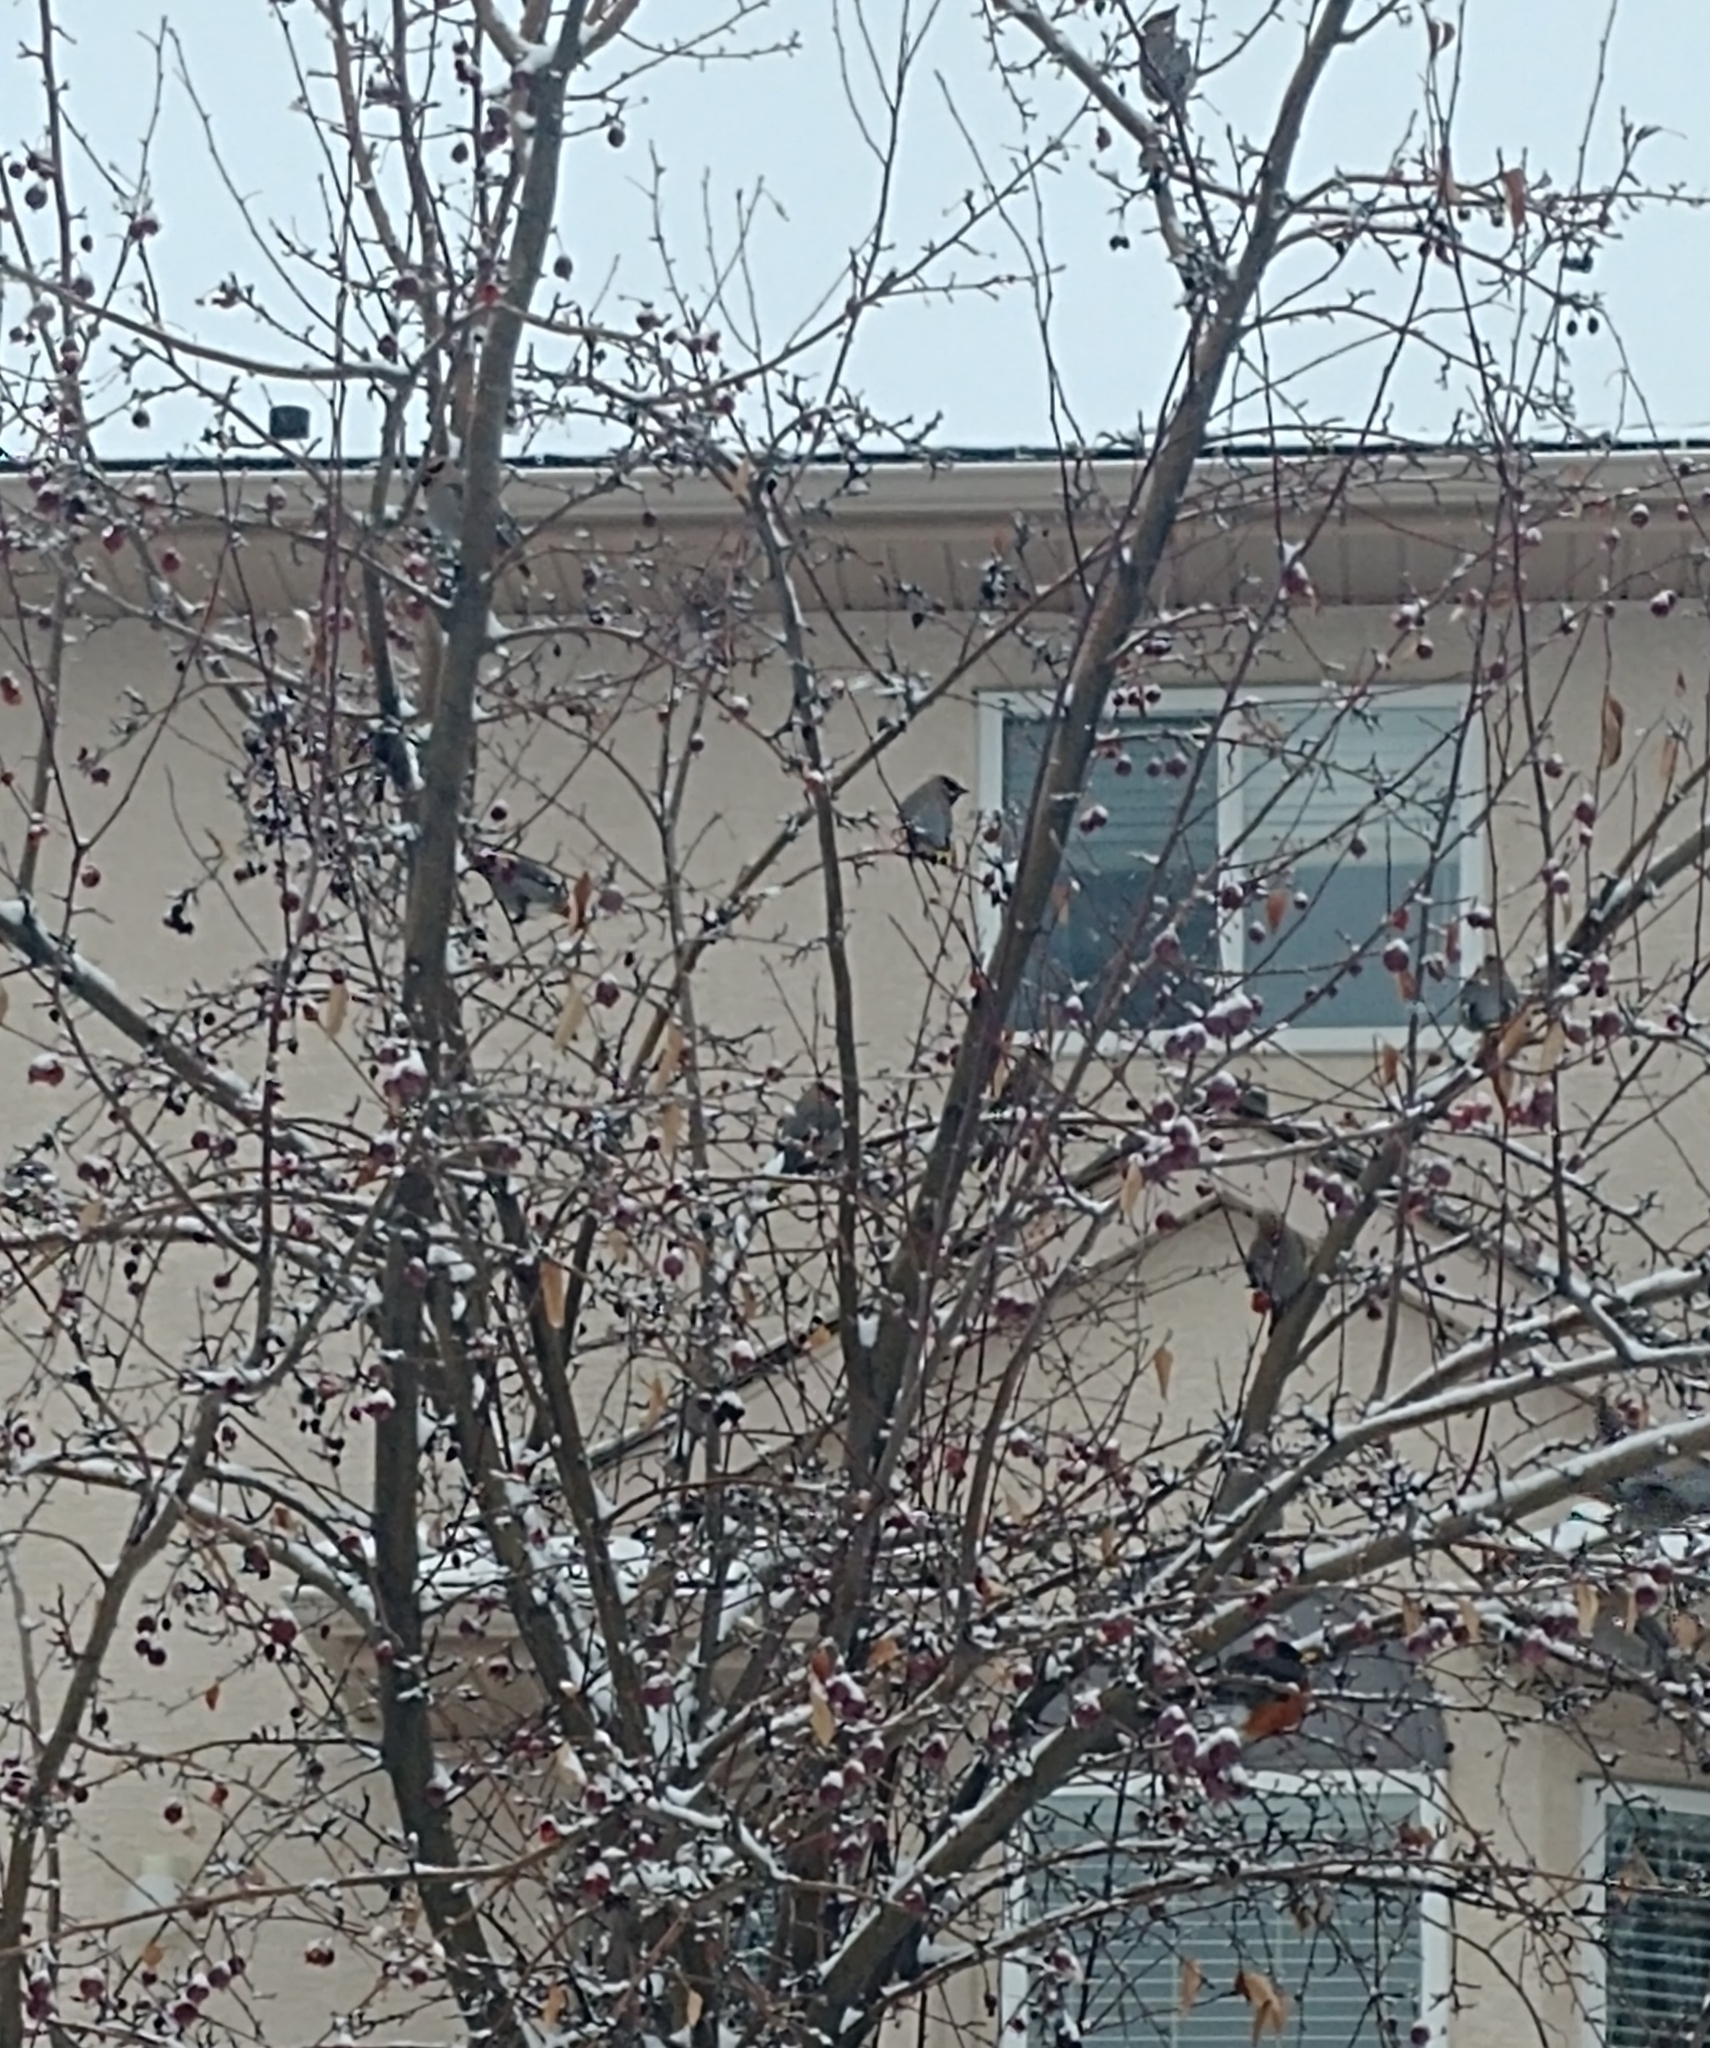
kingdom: Animalia
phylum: Chordata
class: Aves
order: Passeriformes
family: Bombycillidae
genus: Bombycilla
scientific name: Bombycilla garrulus
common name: Bohemian waxwing
